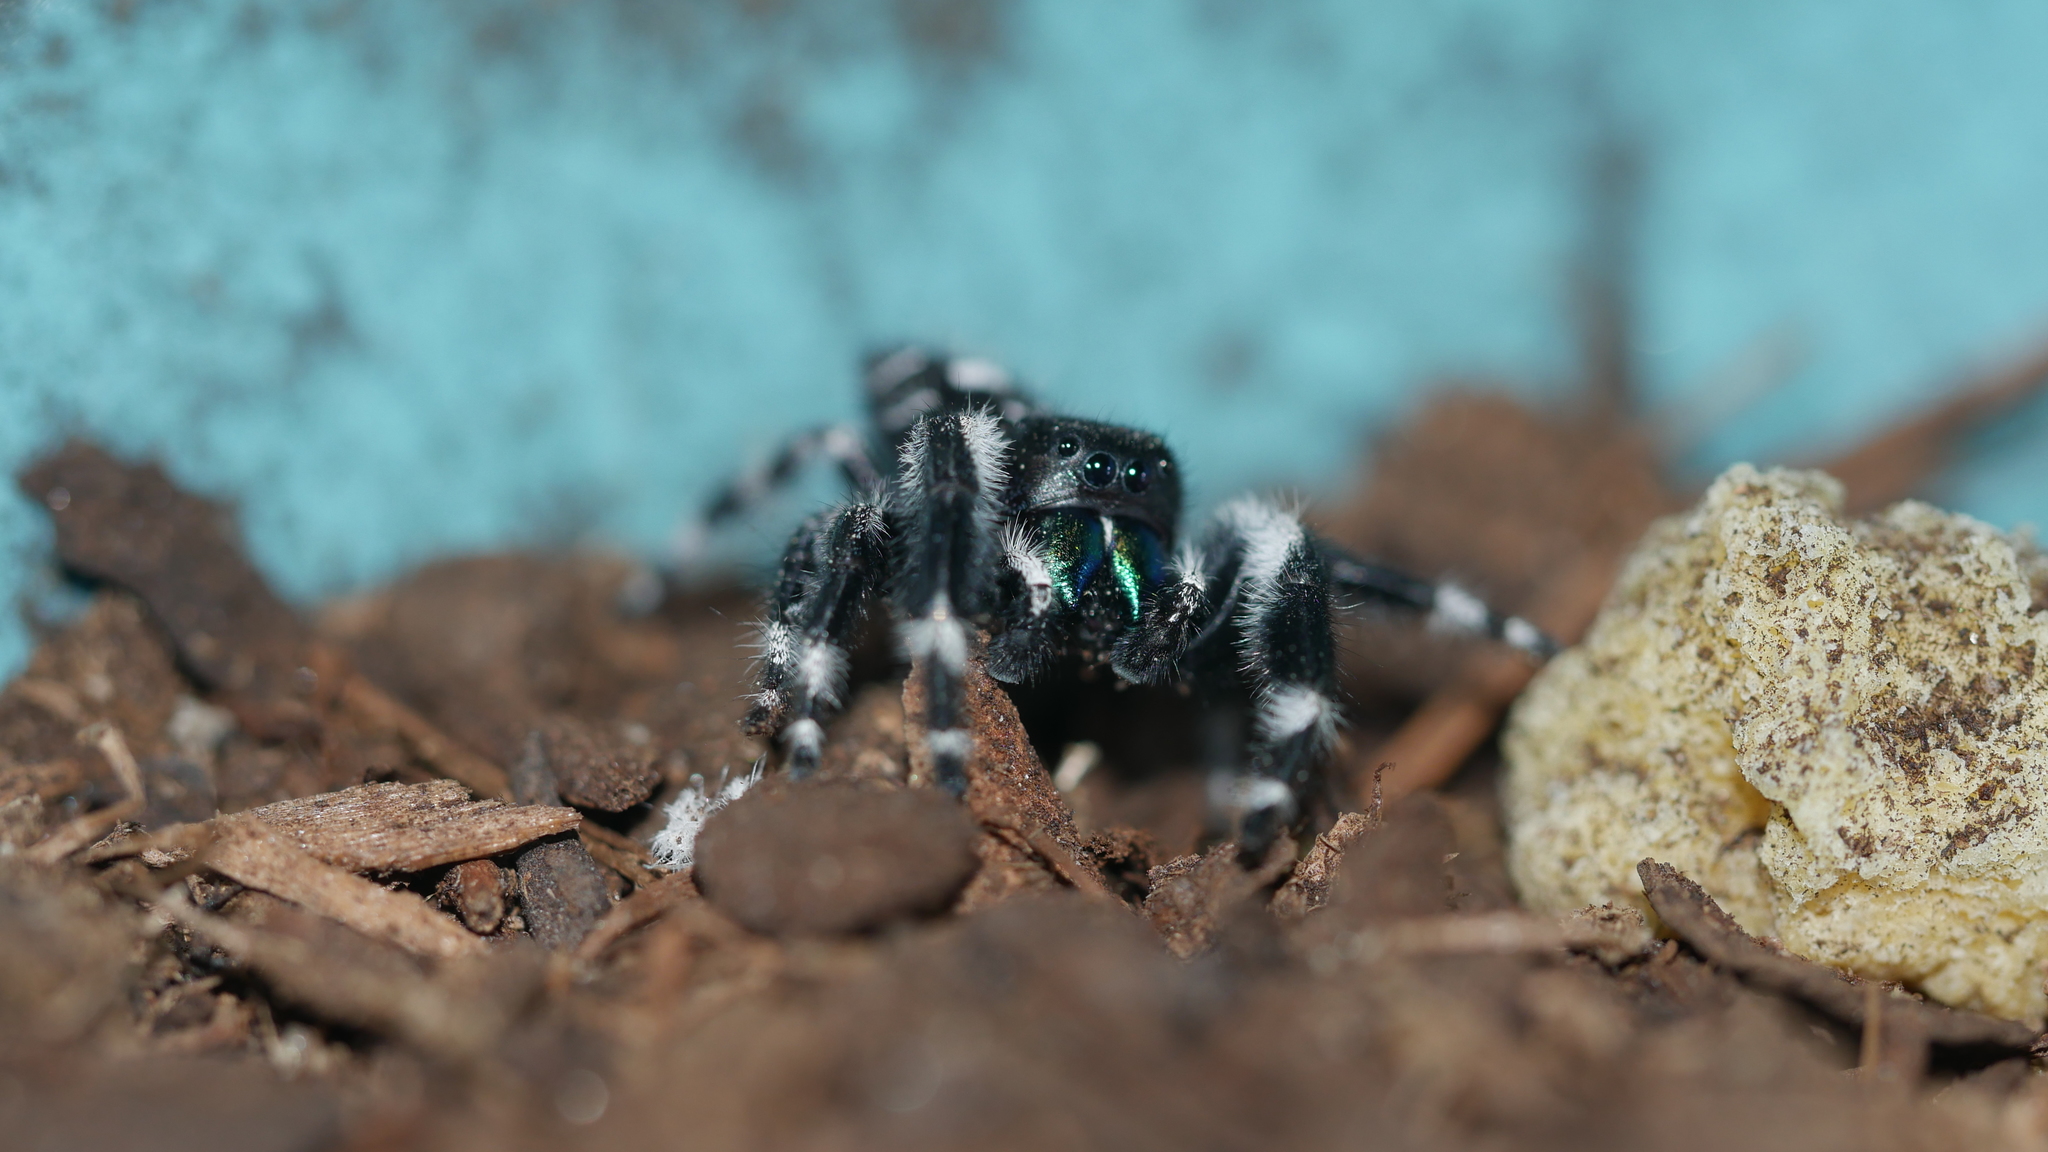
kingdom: Animalia
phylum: Arthropoda
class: Arachnida
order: Araneae
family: Salticidae
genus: Phidippus
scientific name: Phidippus audax
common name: Bold jumper
